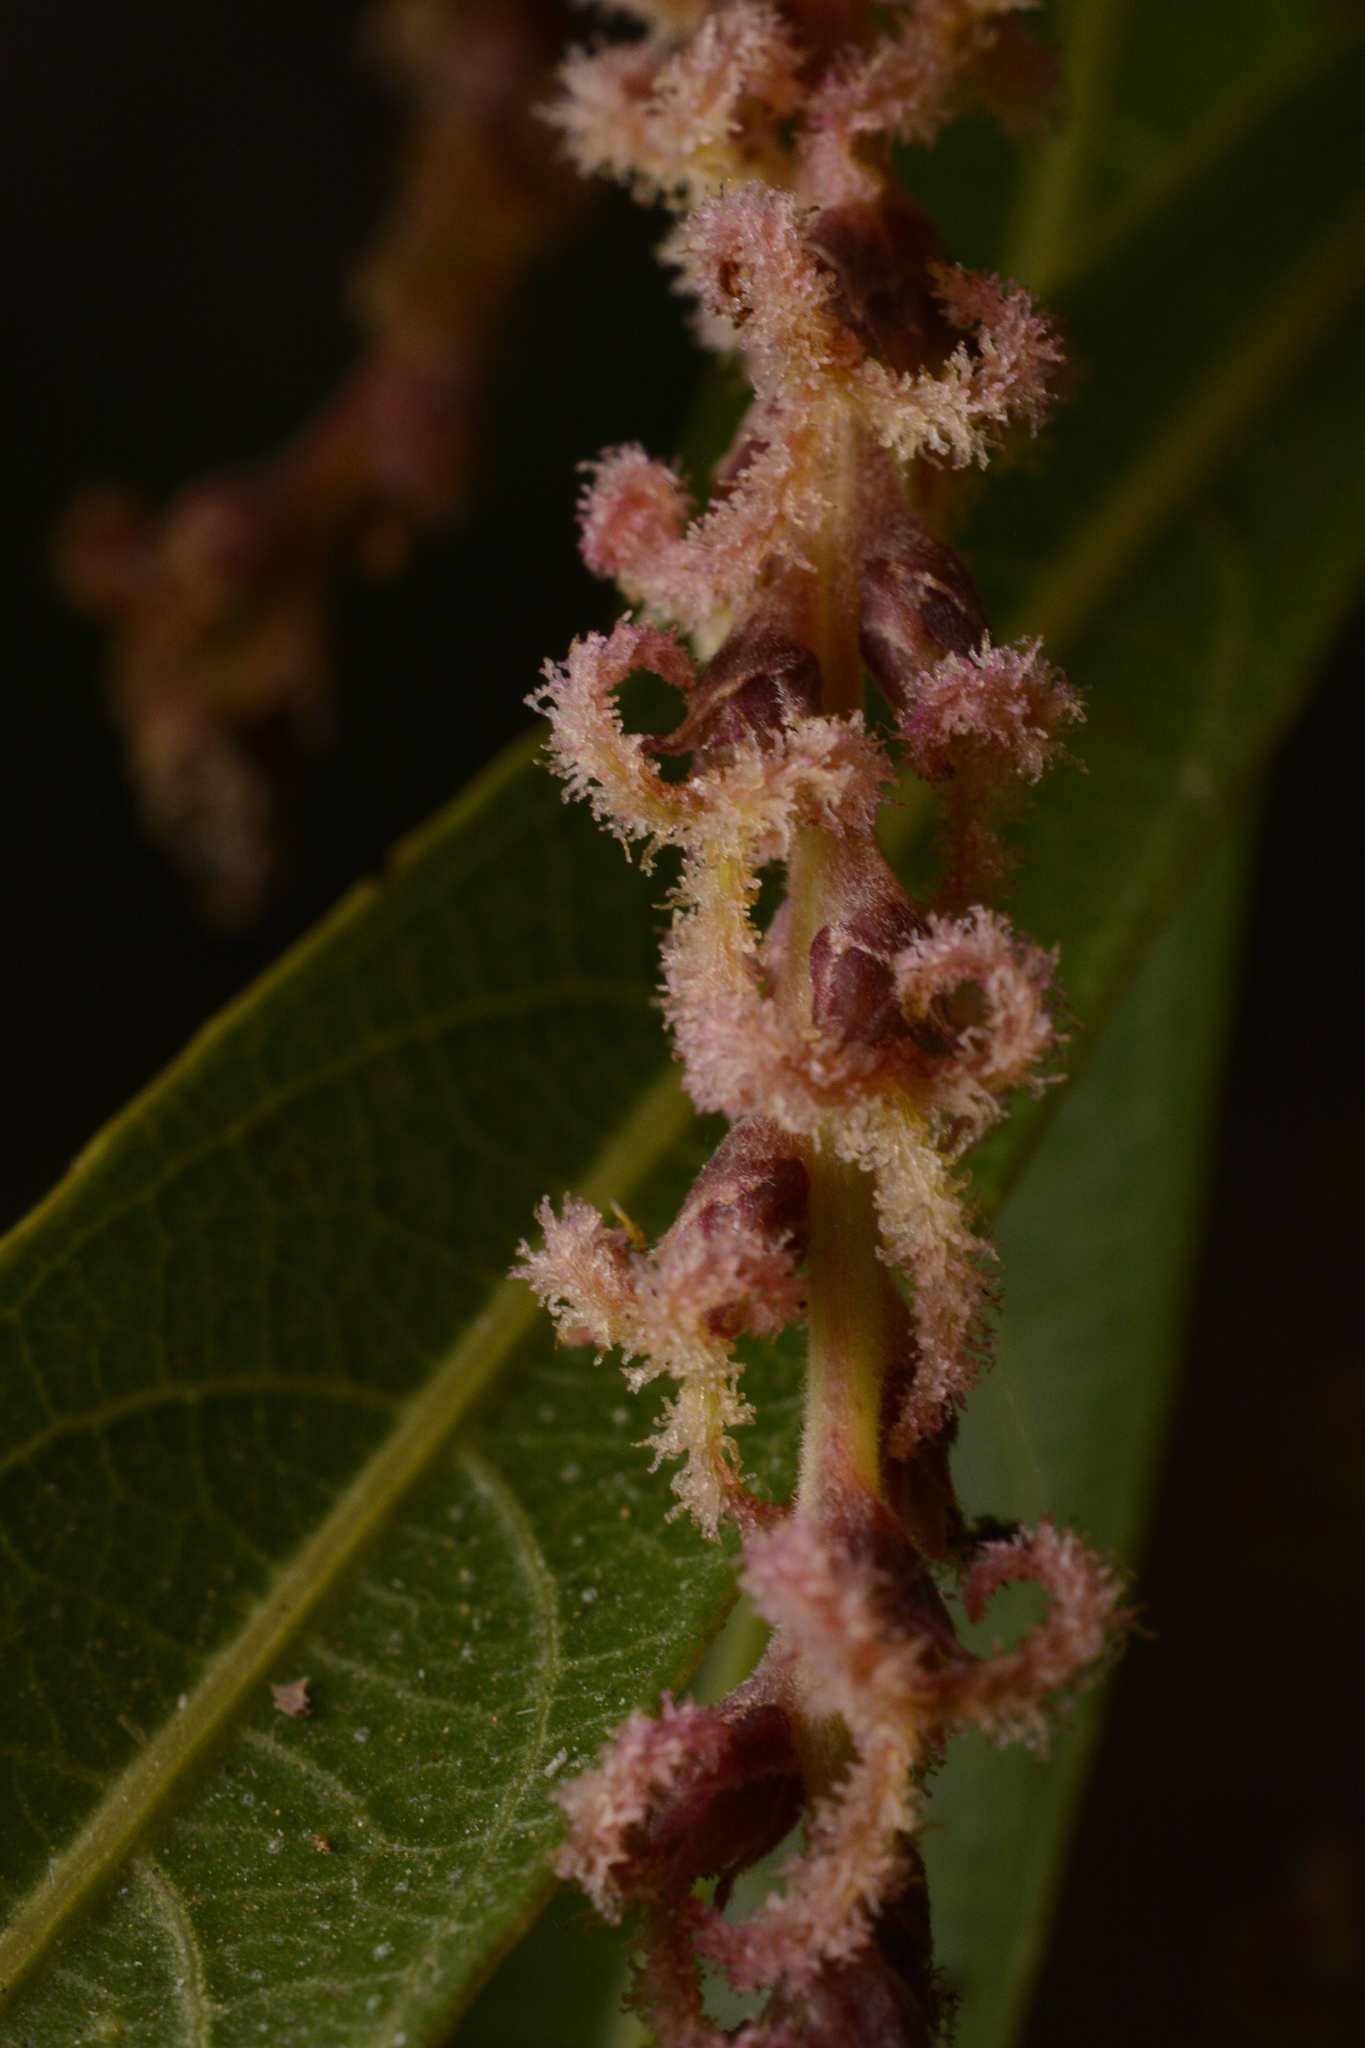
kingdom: Plantae
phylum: Tracheophyta
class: Magnoliopsida
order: Malpighiales
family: Euphorbiaceae
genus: Homonoia
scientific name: Homonoia riparia
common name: Willow-leaved water croton
